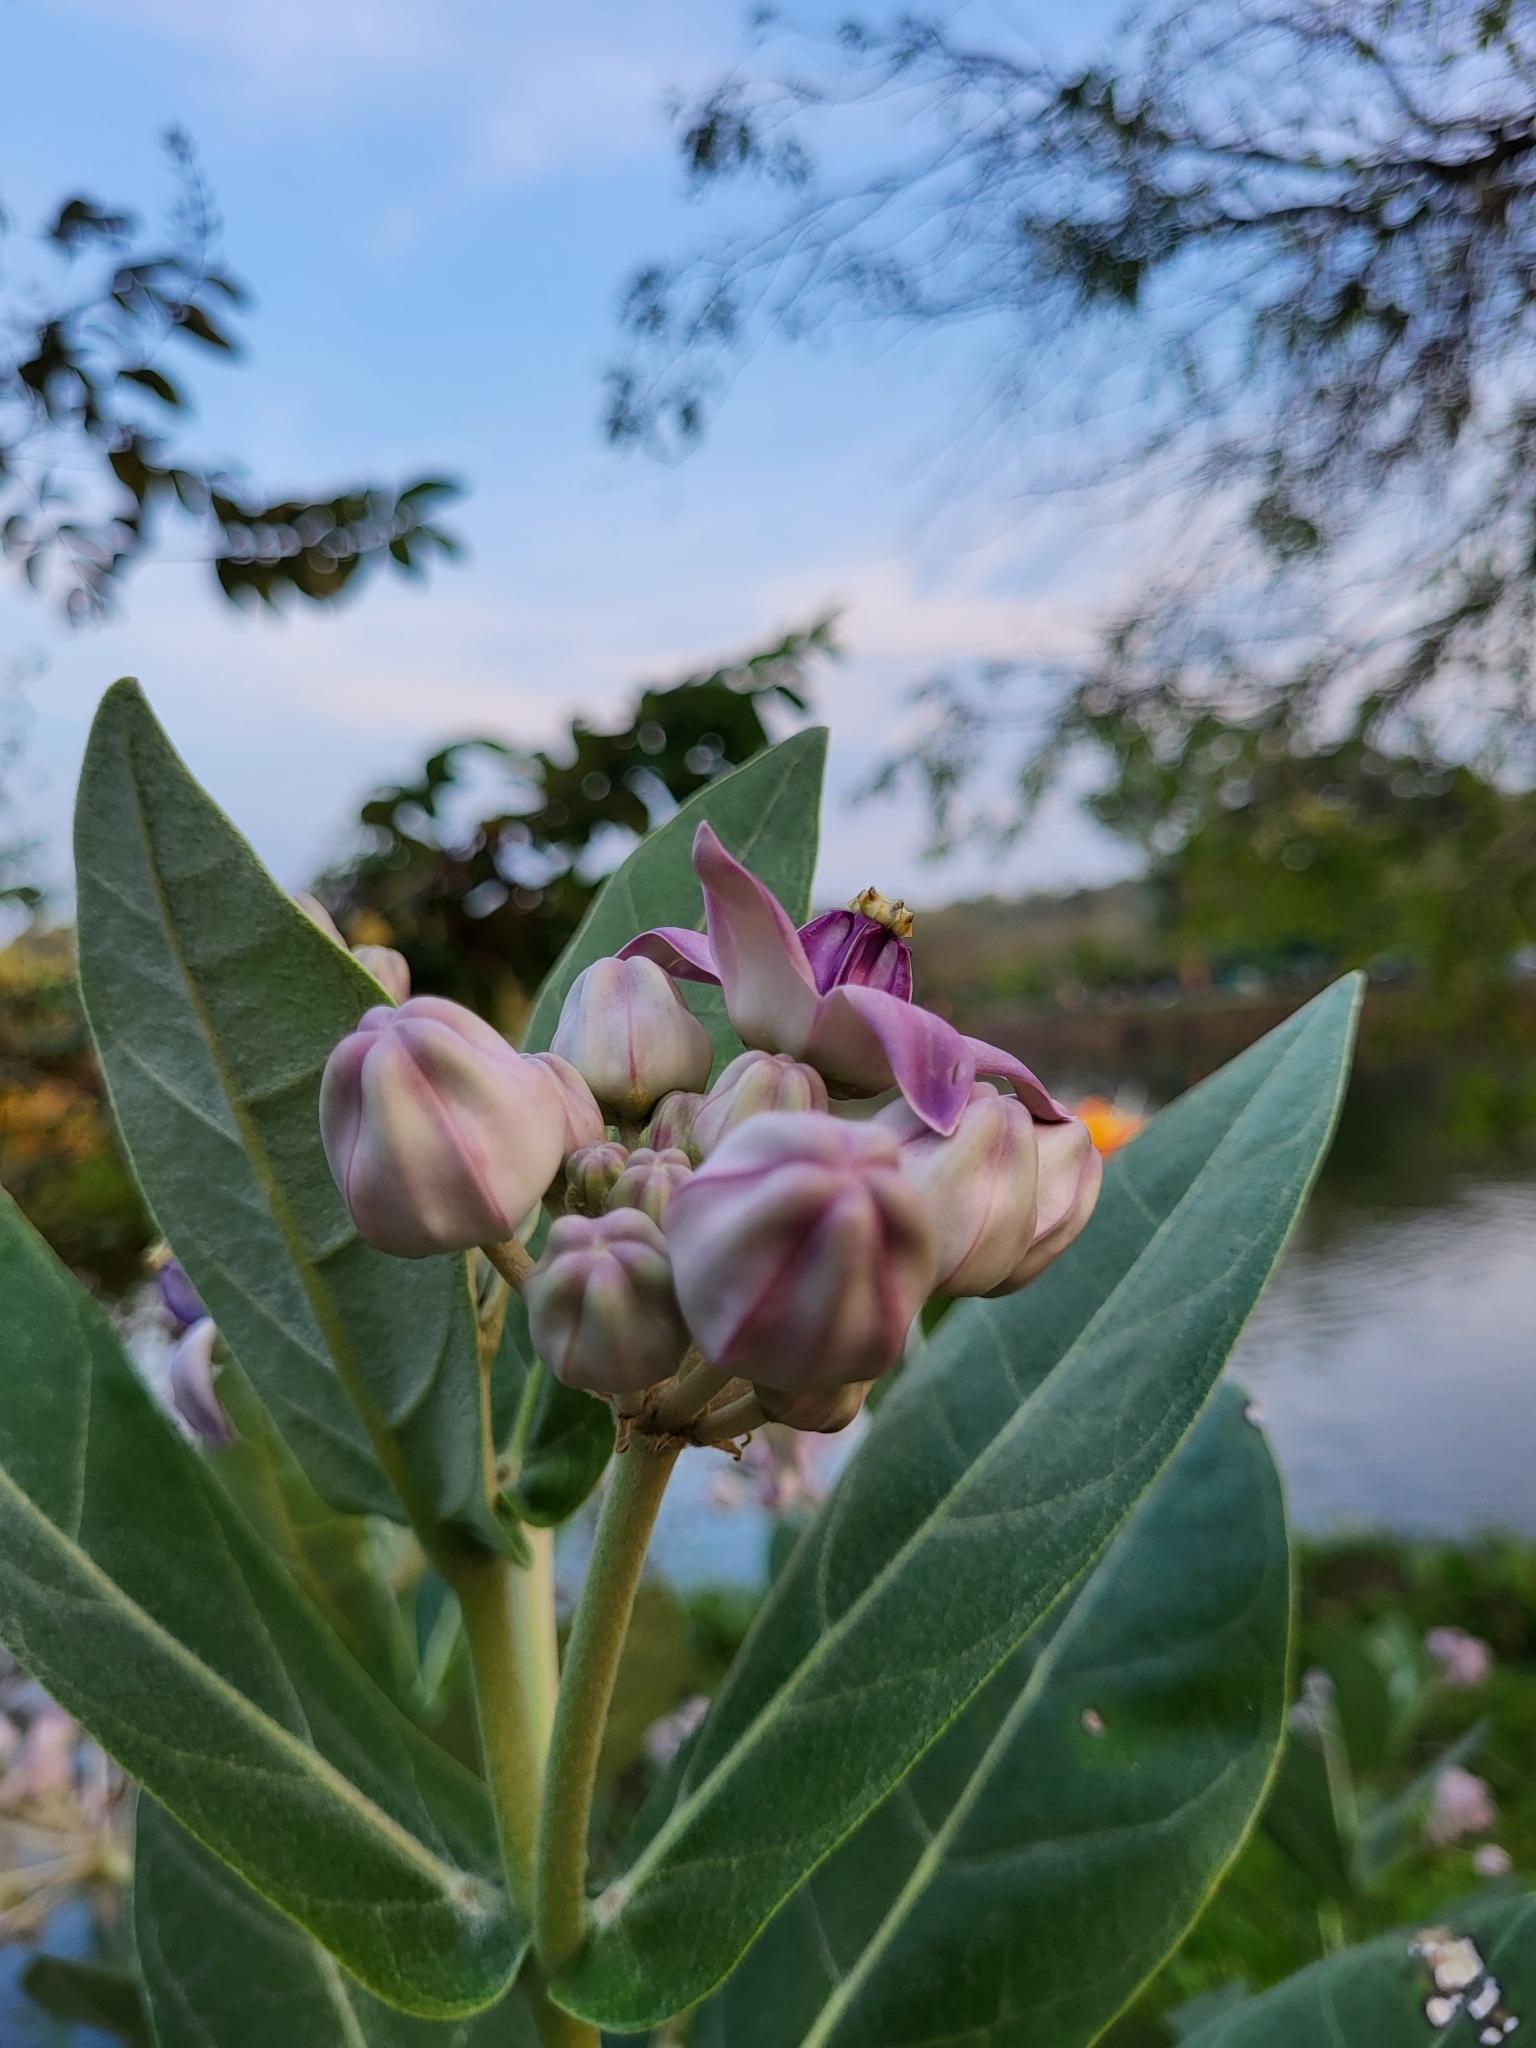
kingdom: Plantae
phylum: Tracheophyta
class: Magnoliopsida
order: Gentianales
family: Apocynaceae
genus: Calotropis
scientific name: Calotropis gigantea
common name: Crown flower
